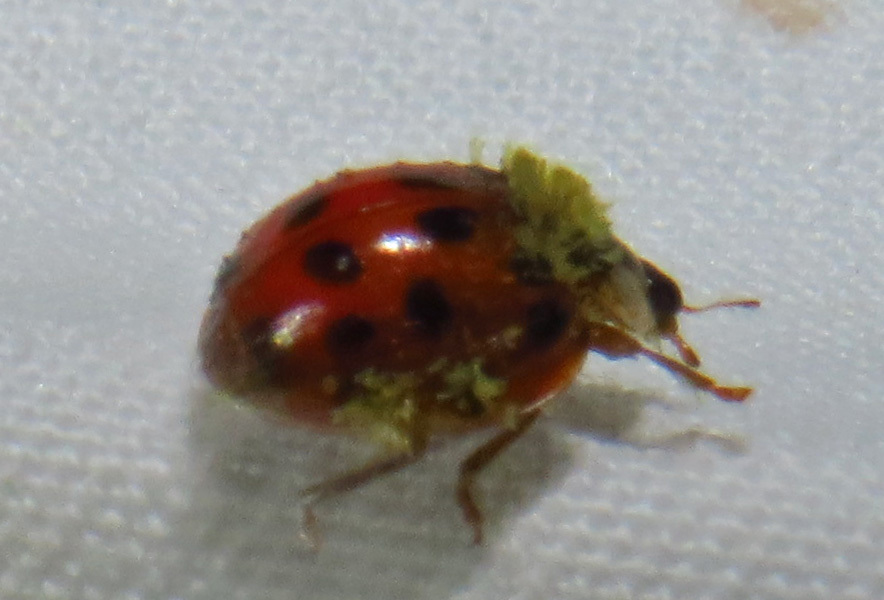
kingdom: Animalia
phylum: Arthropoda
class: Insecta
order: Coleoptera
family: Coccinellidae
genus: Harmonia
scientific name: Harmonia axyridis
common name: Harlequin ladybird
